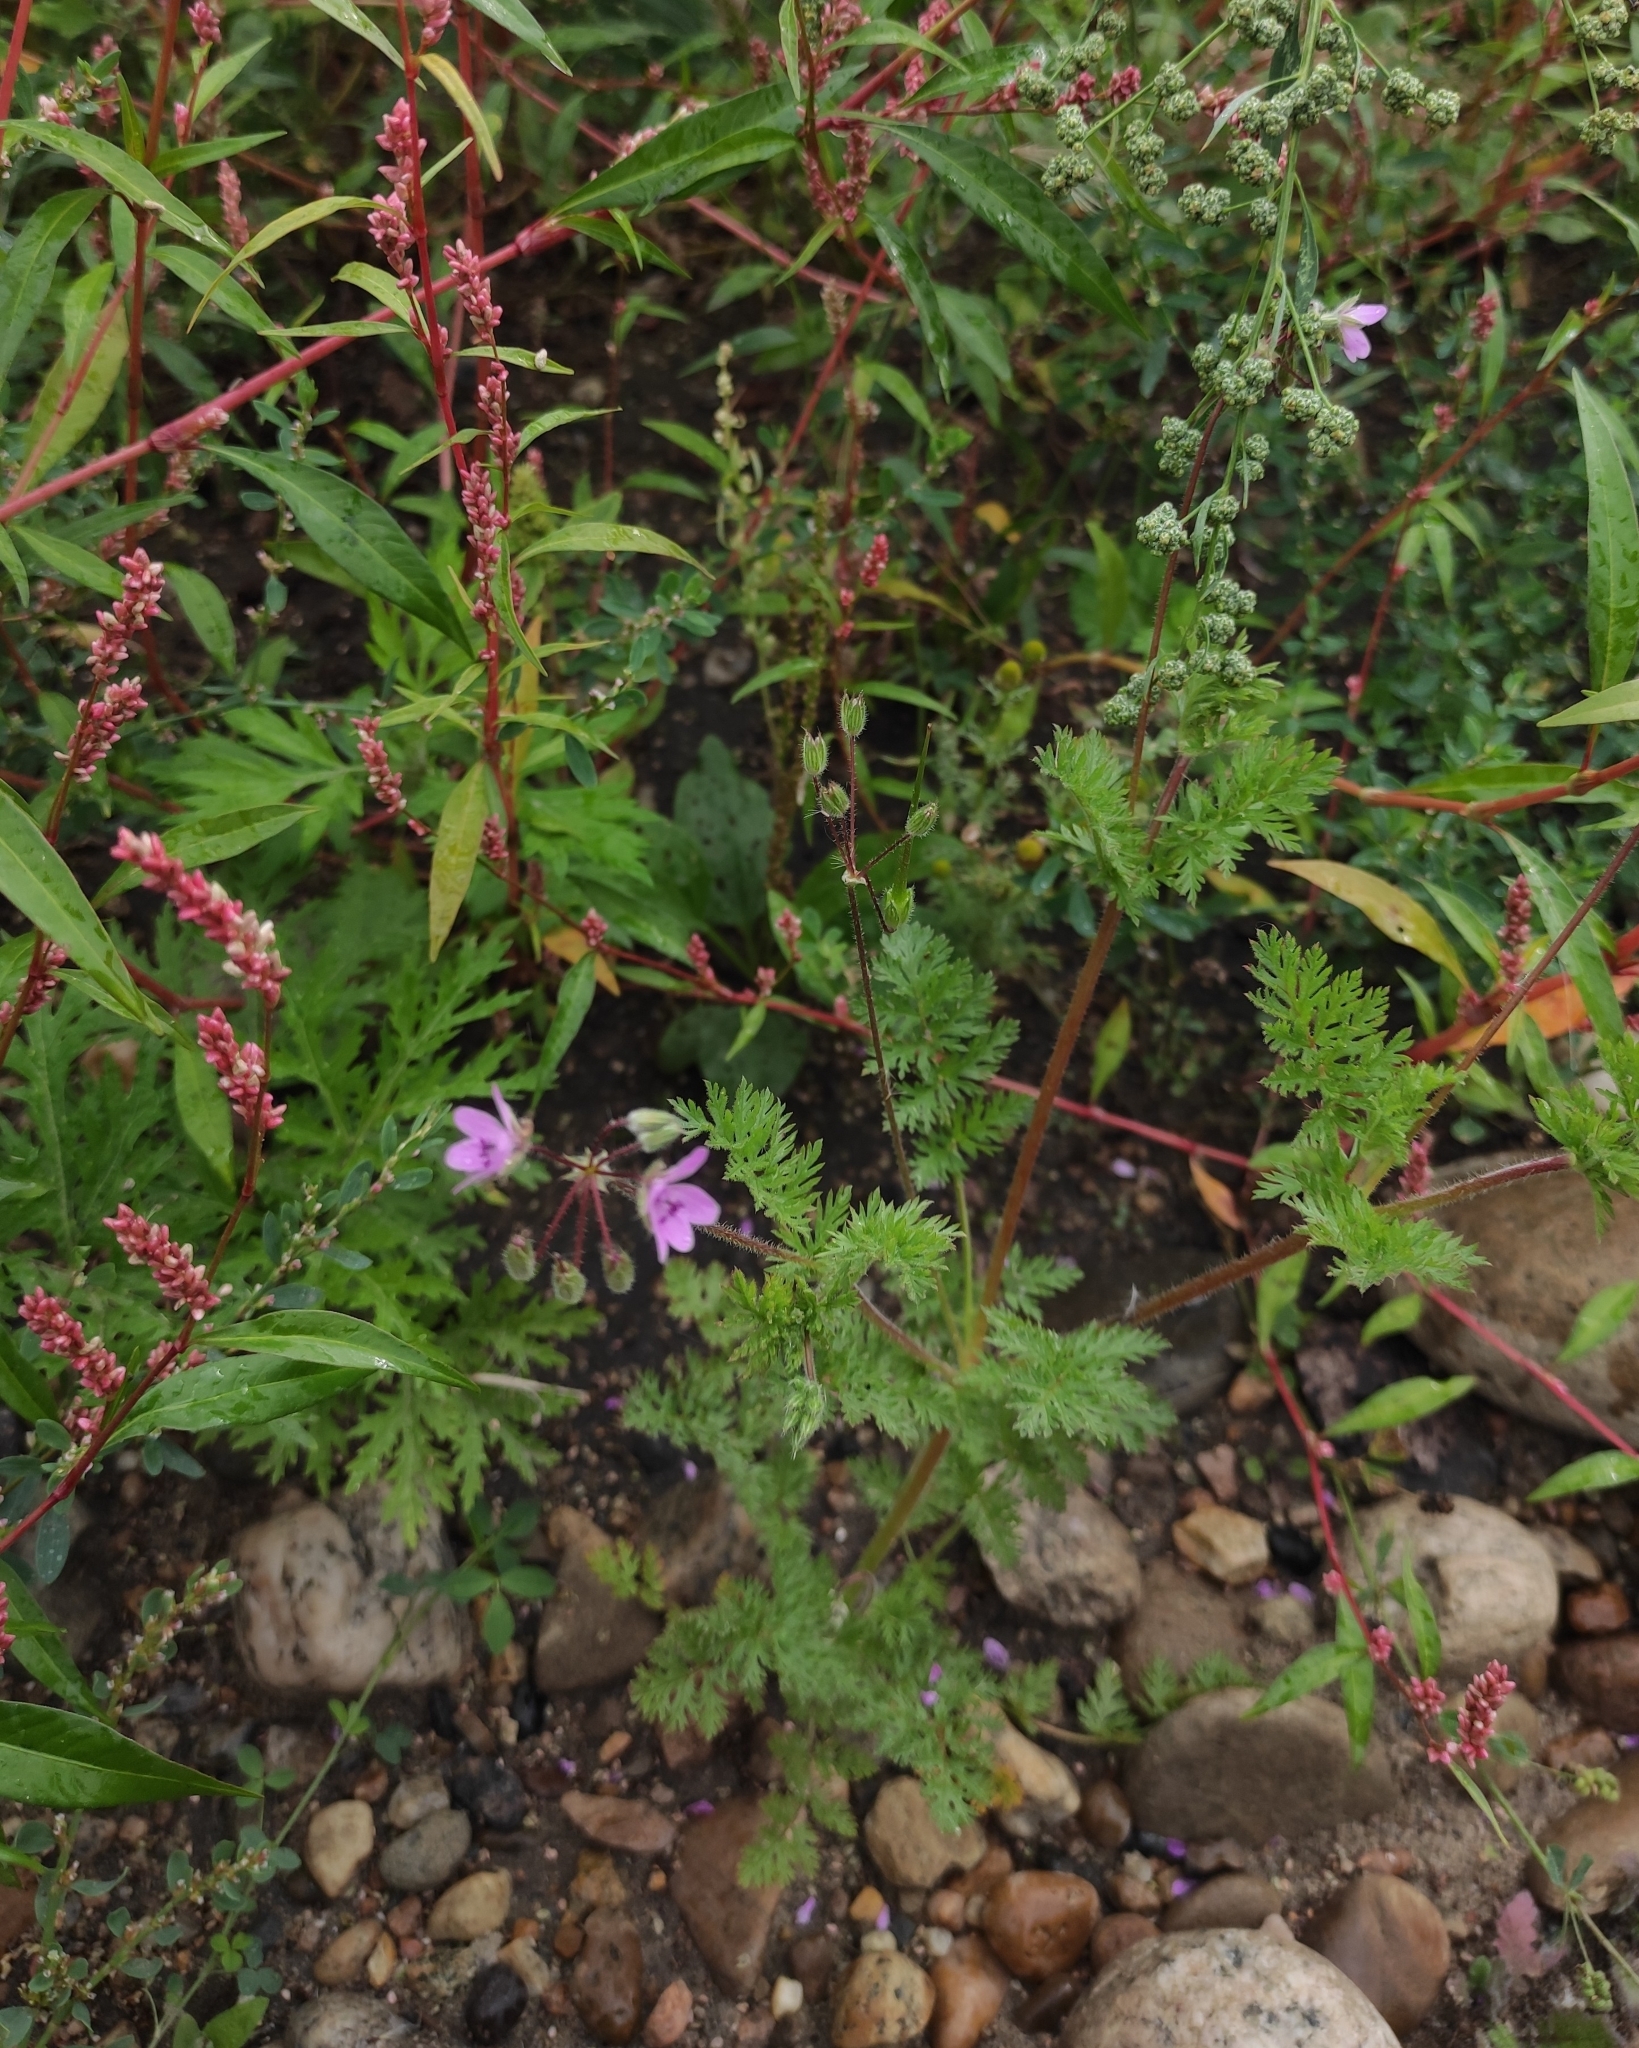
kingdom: Plantae
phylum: Tracheophyta
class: Magnoliopsida
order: Geraniales
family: Geraniaceae
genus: Erodium
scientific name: Erodium cicutarium
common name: Common stork's-bill
